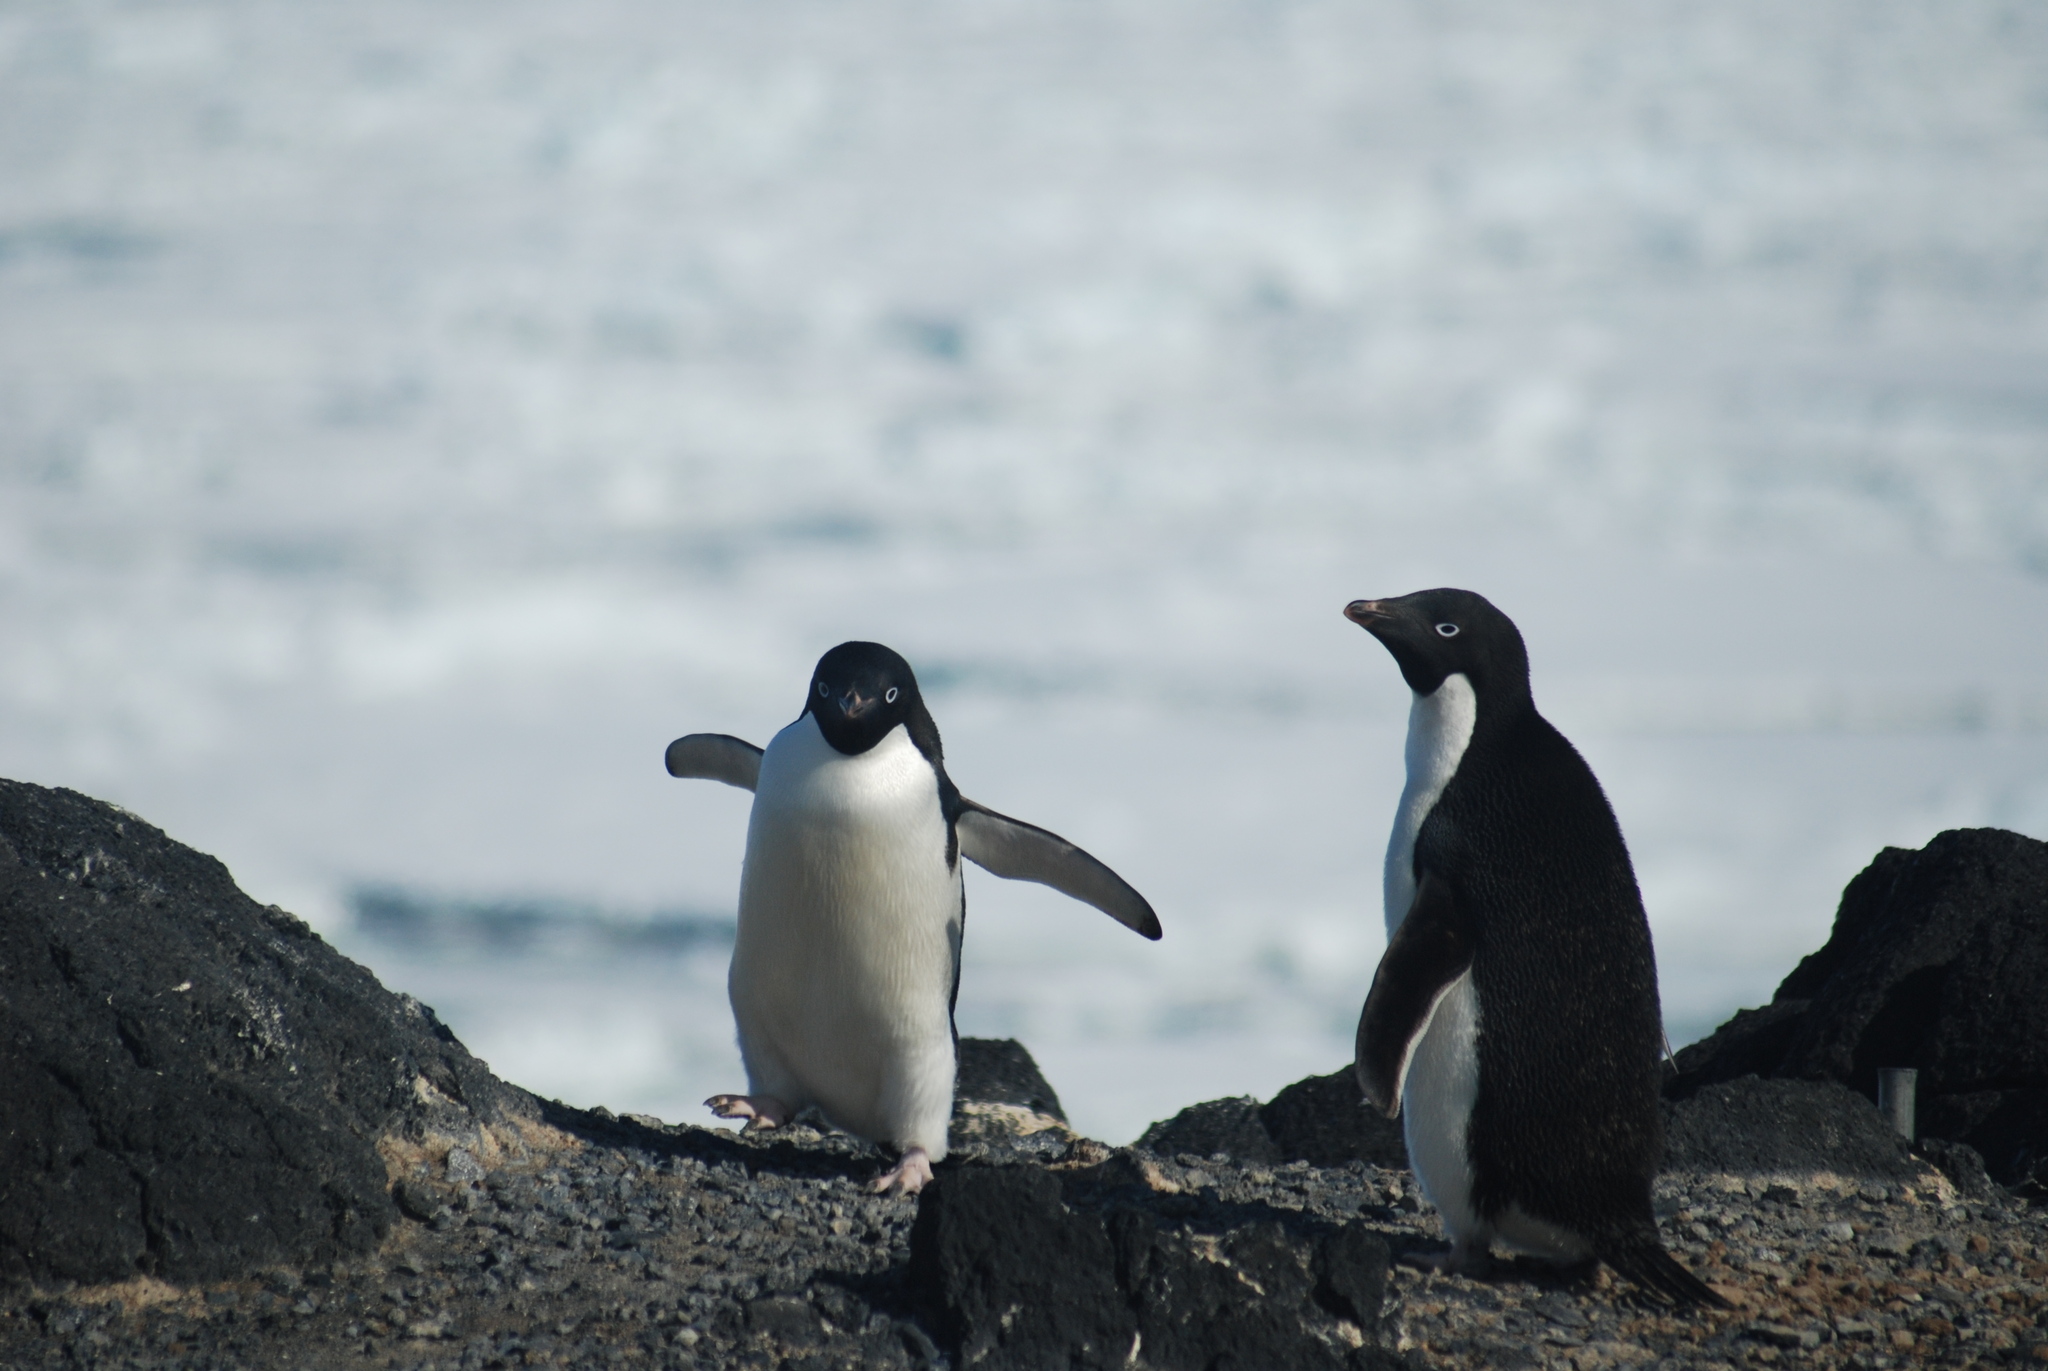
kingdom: Animalia
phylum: Chordata
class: Aves
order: Sphenisciformes
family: Spheniscidae
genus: Pygoscelis
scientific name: Pygoscelis adeliae
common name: Adelie penguin
